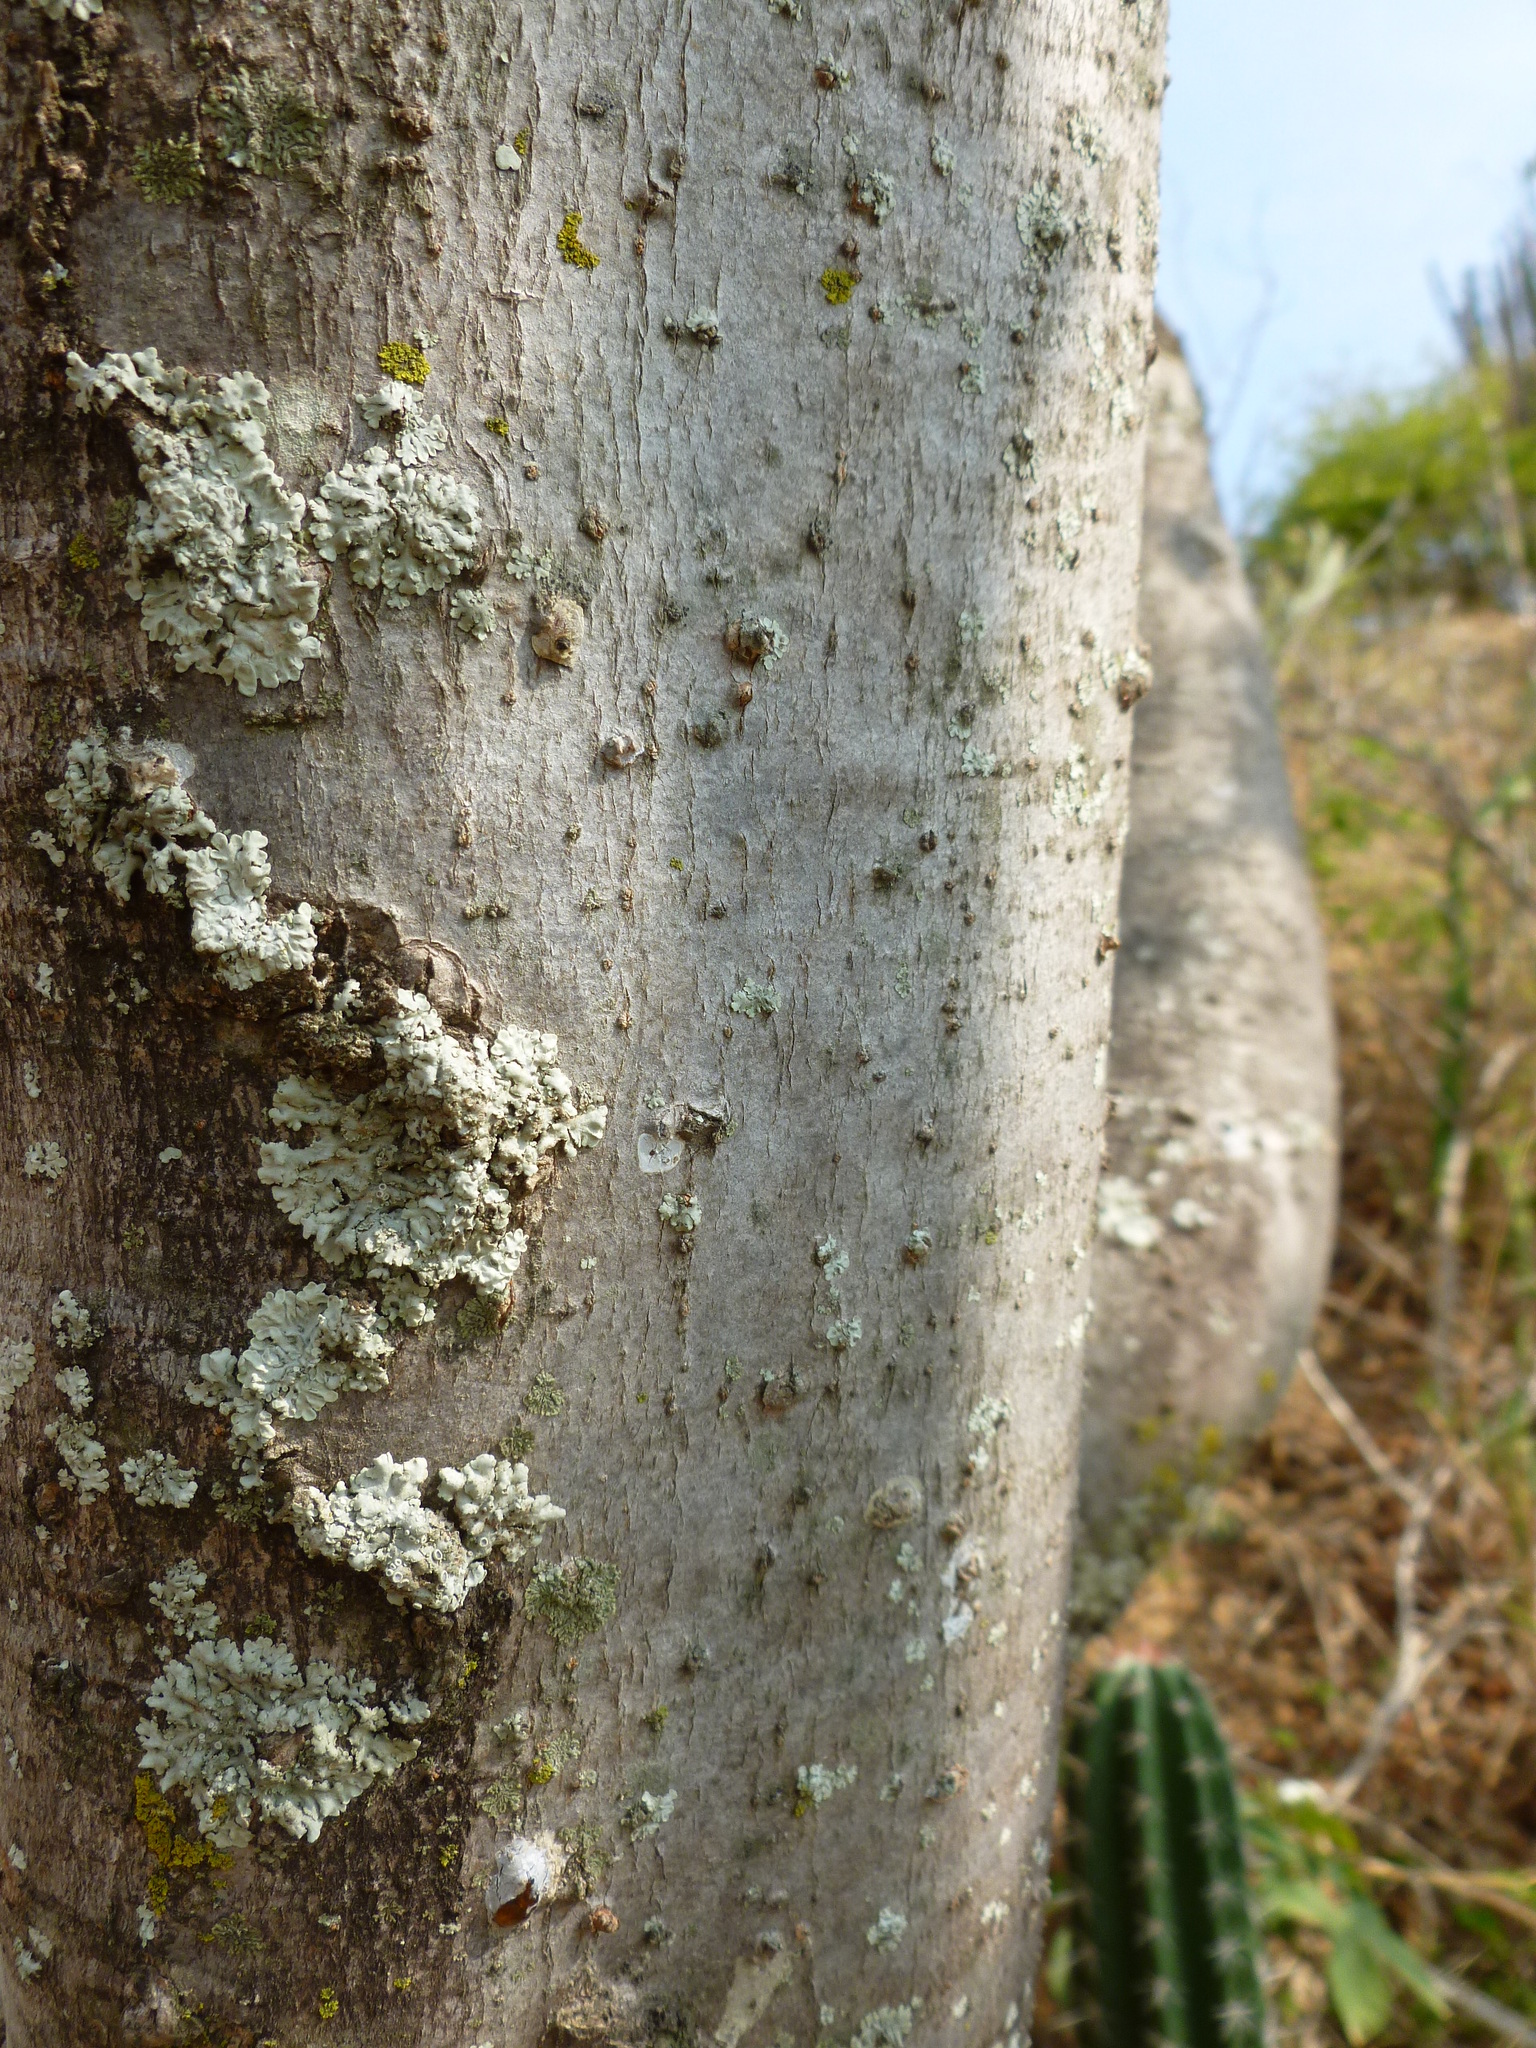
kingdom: Plantae
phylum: Tracheophyta
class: Magnoliopsida
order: Sapindales
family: Burseraceae
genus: Bursera
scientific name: Bursera graveolens
